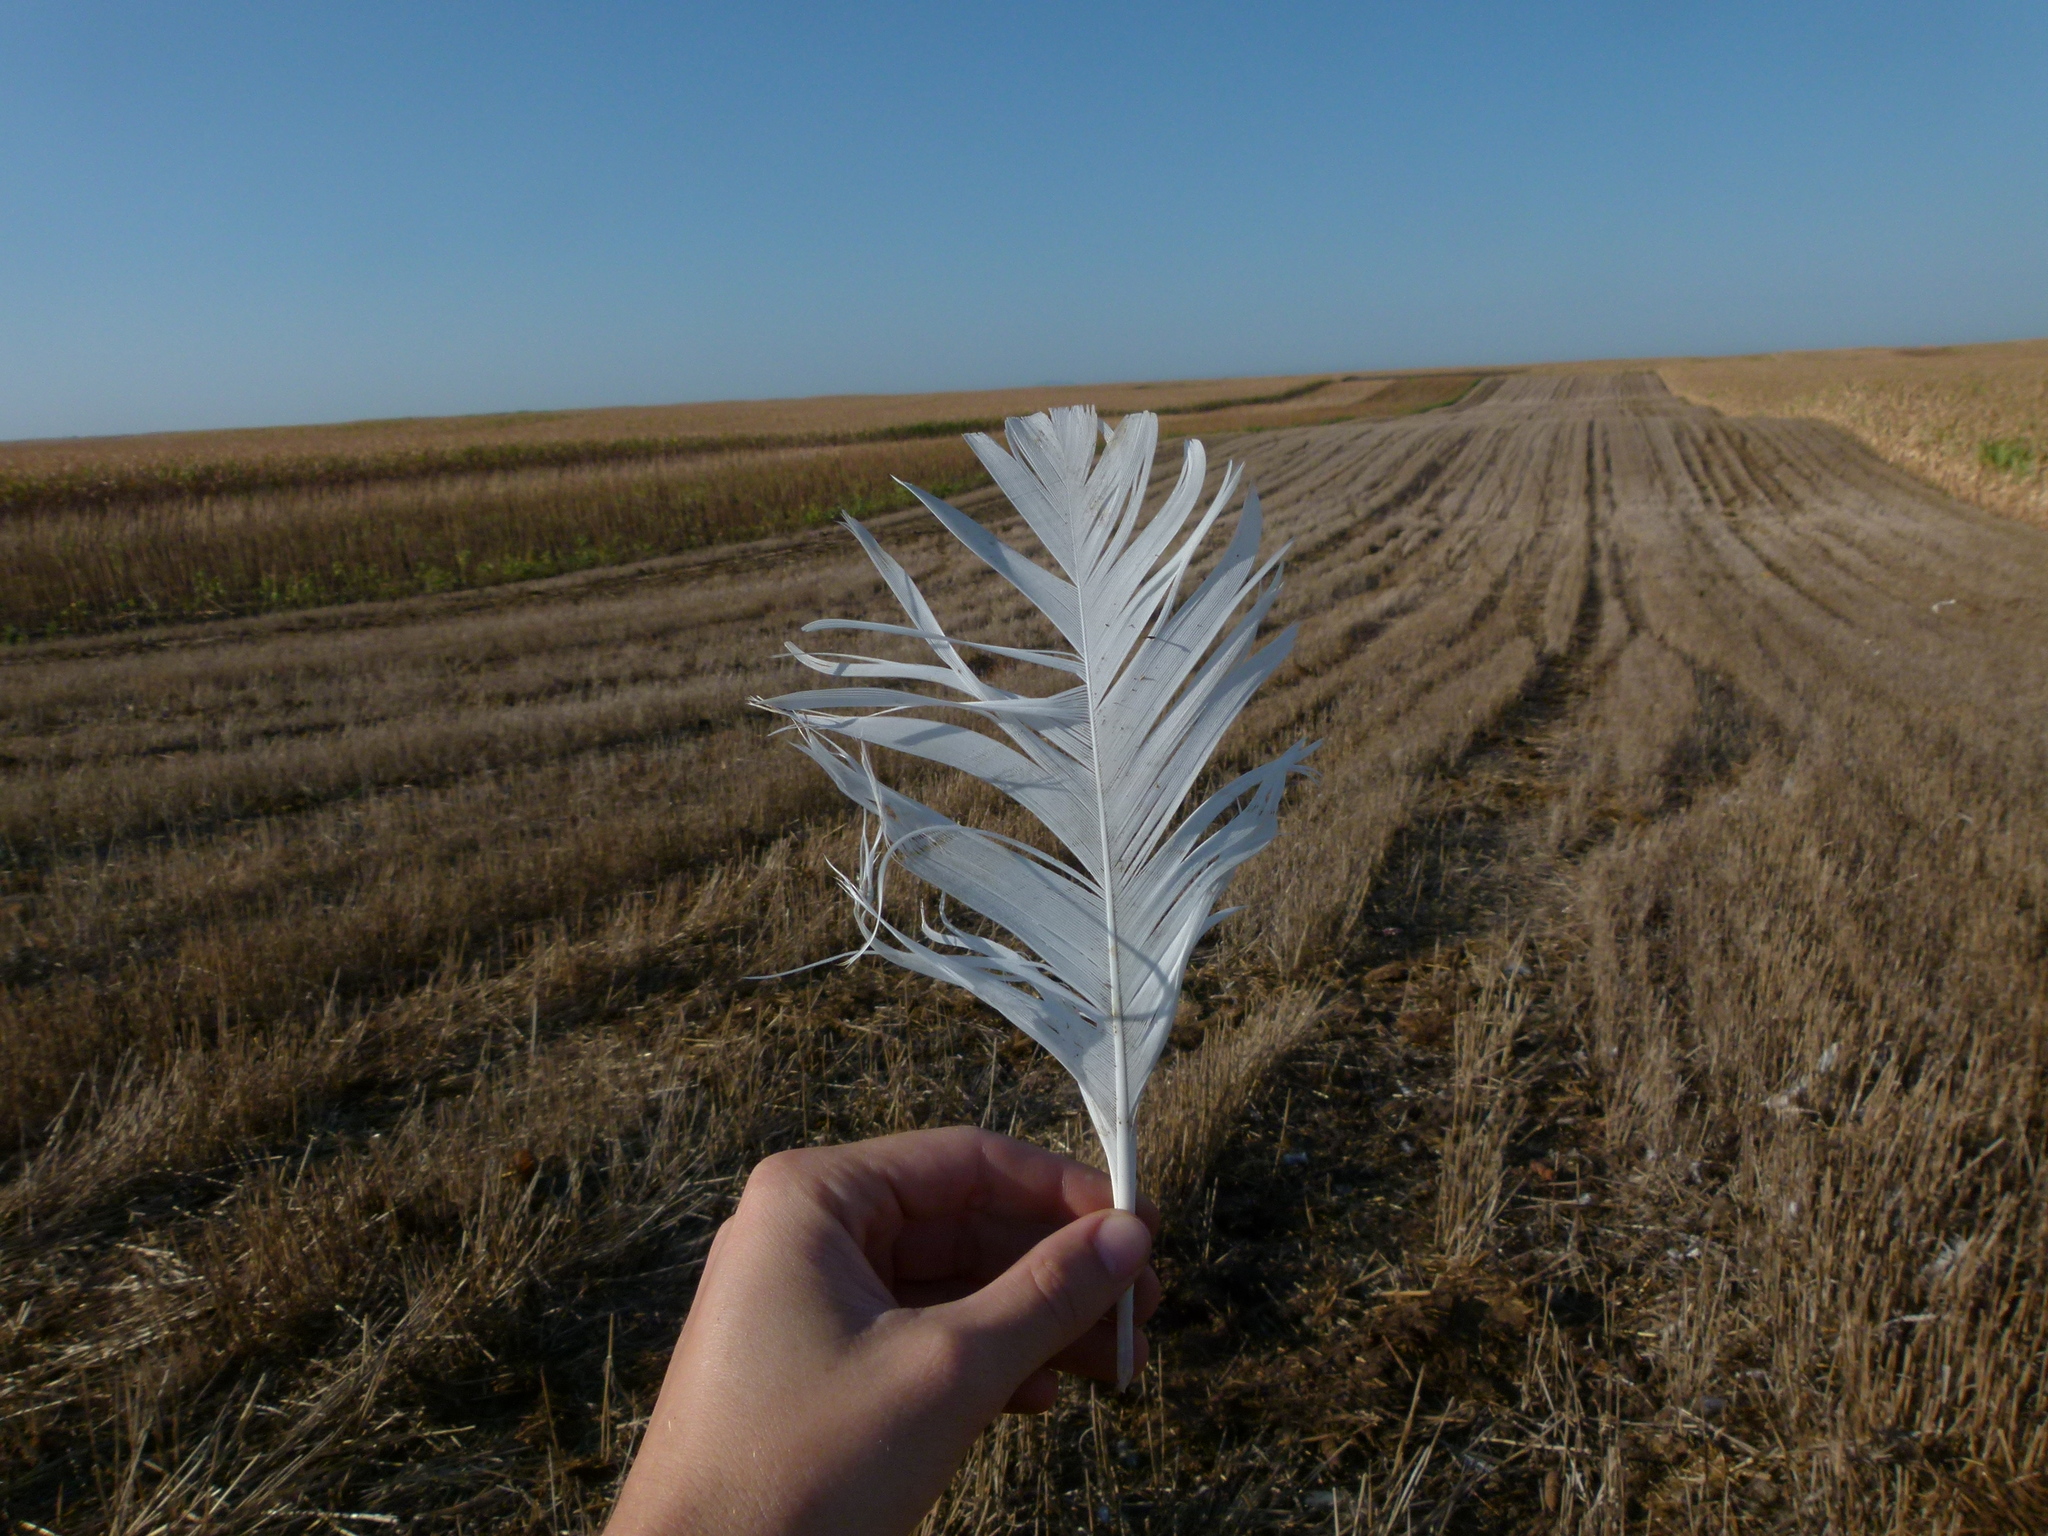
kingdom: Animalia
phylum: Chordata
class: Aves
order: Anseriformes
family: Anatidae
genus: Cygnus
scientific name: Cygnus olor
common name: Mute swan
